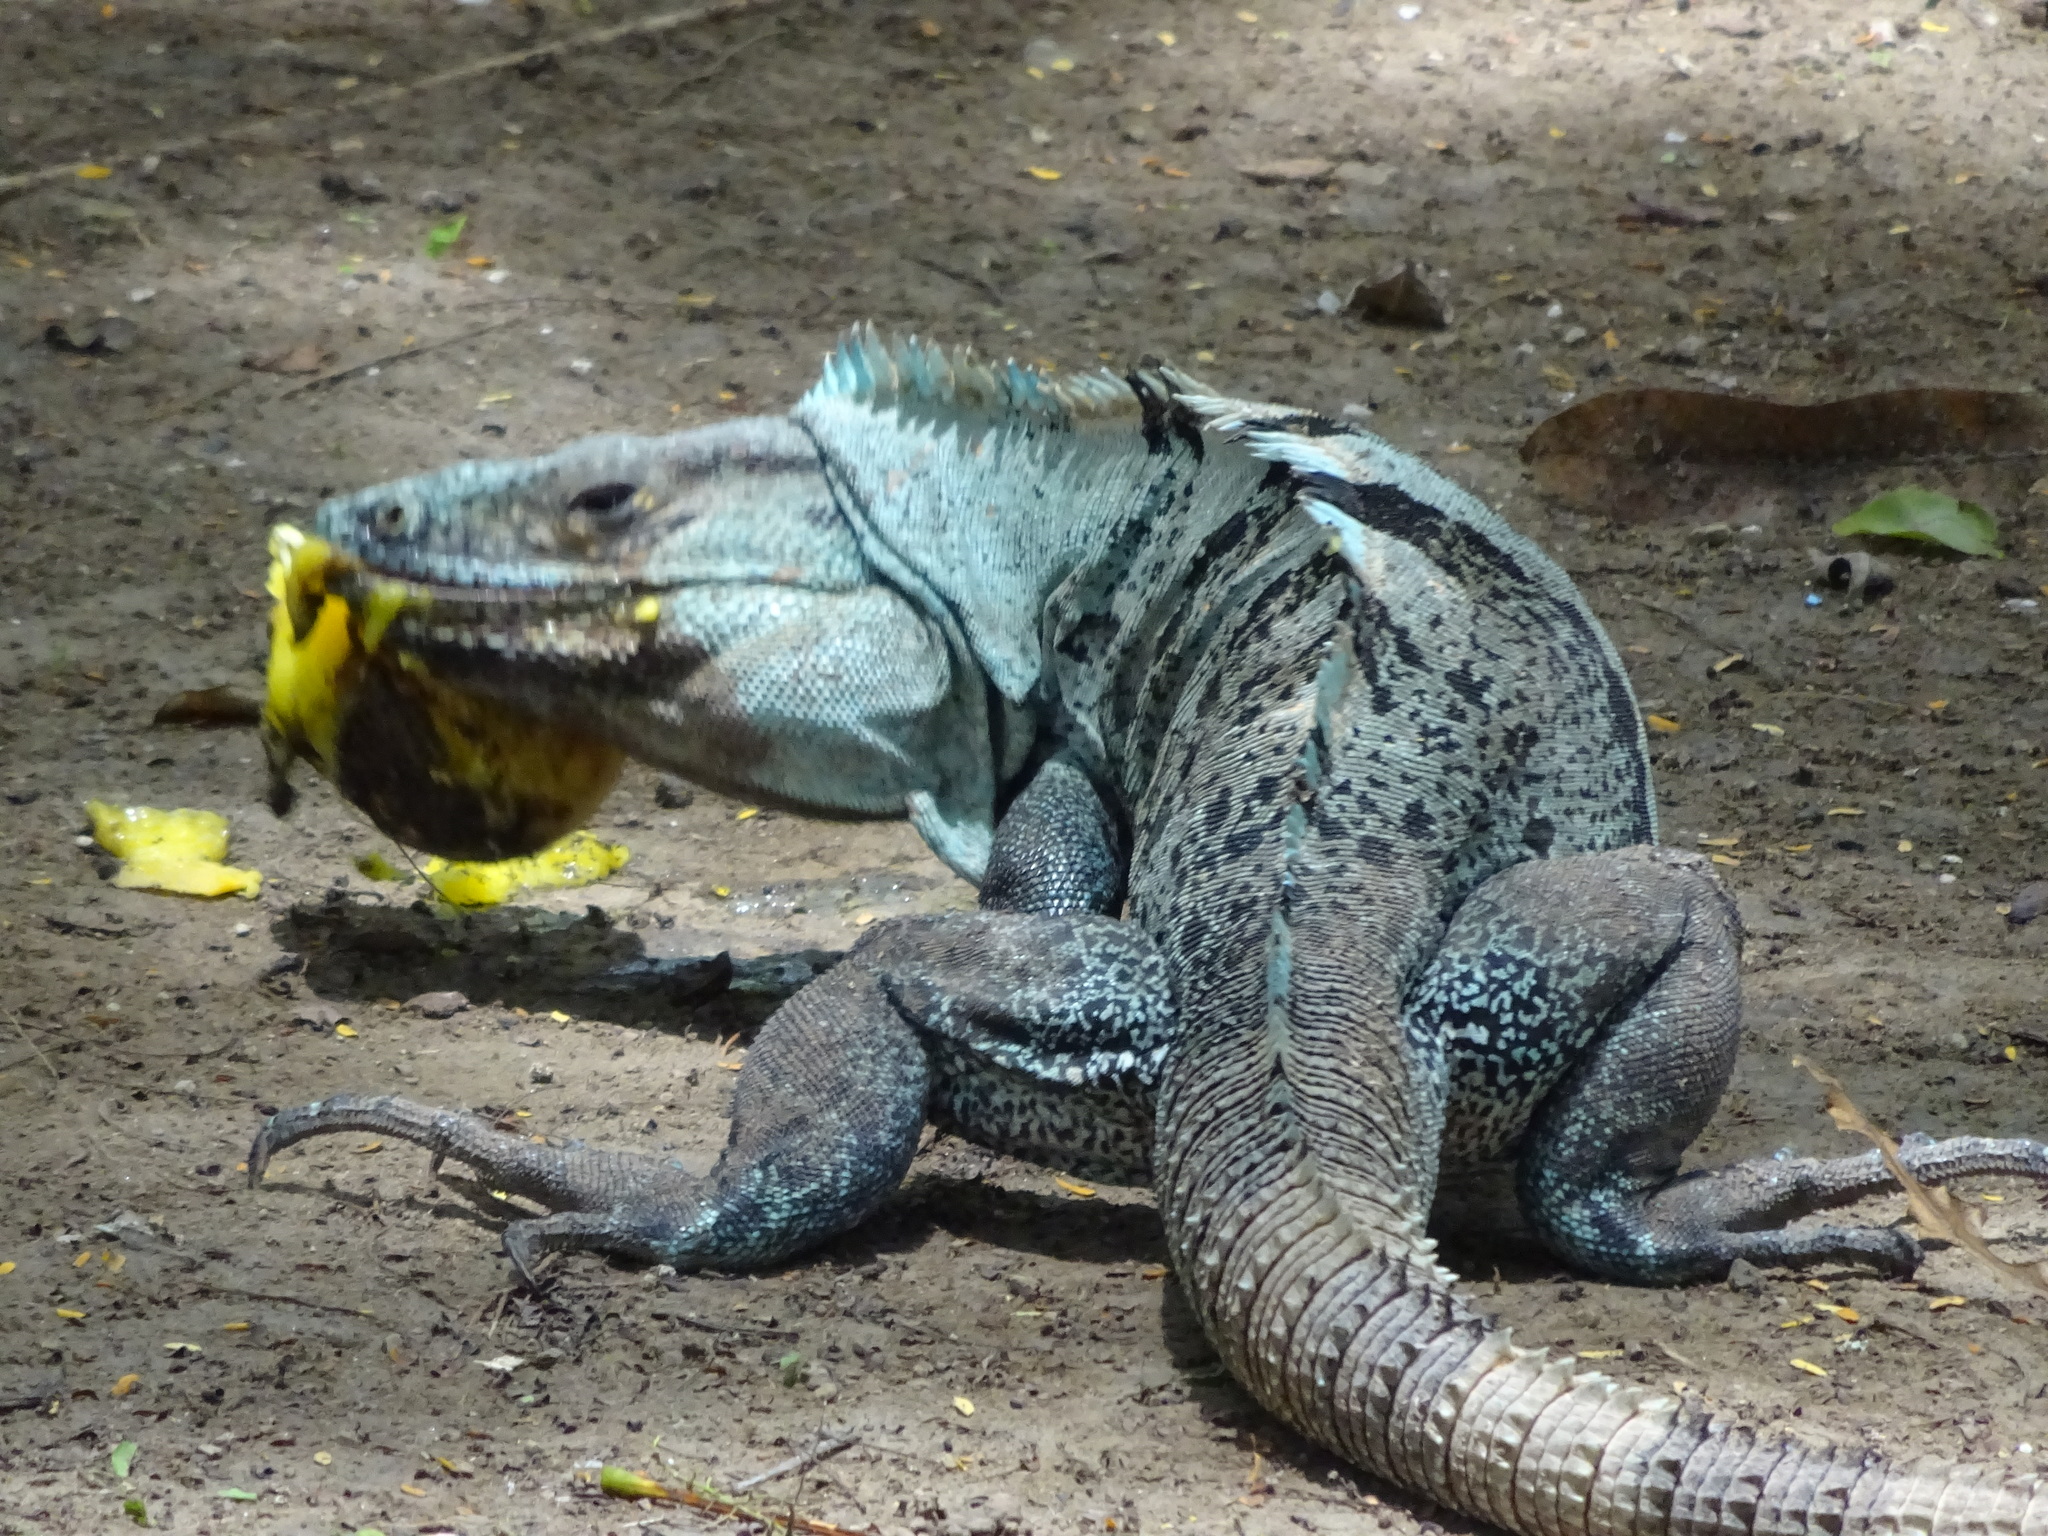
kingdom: Animalia
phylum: Chordata
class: Squamata
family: Iguanidae
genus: Ctenosaura
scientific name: Ctenosaura similis
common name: Black spiny-tailed iguana
